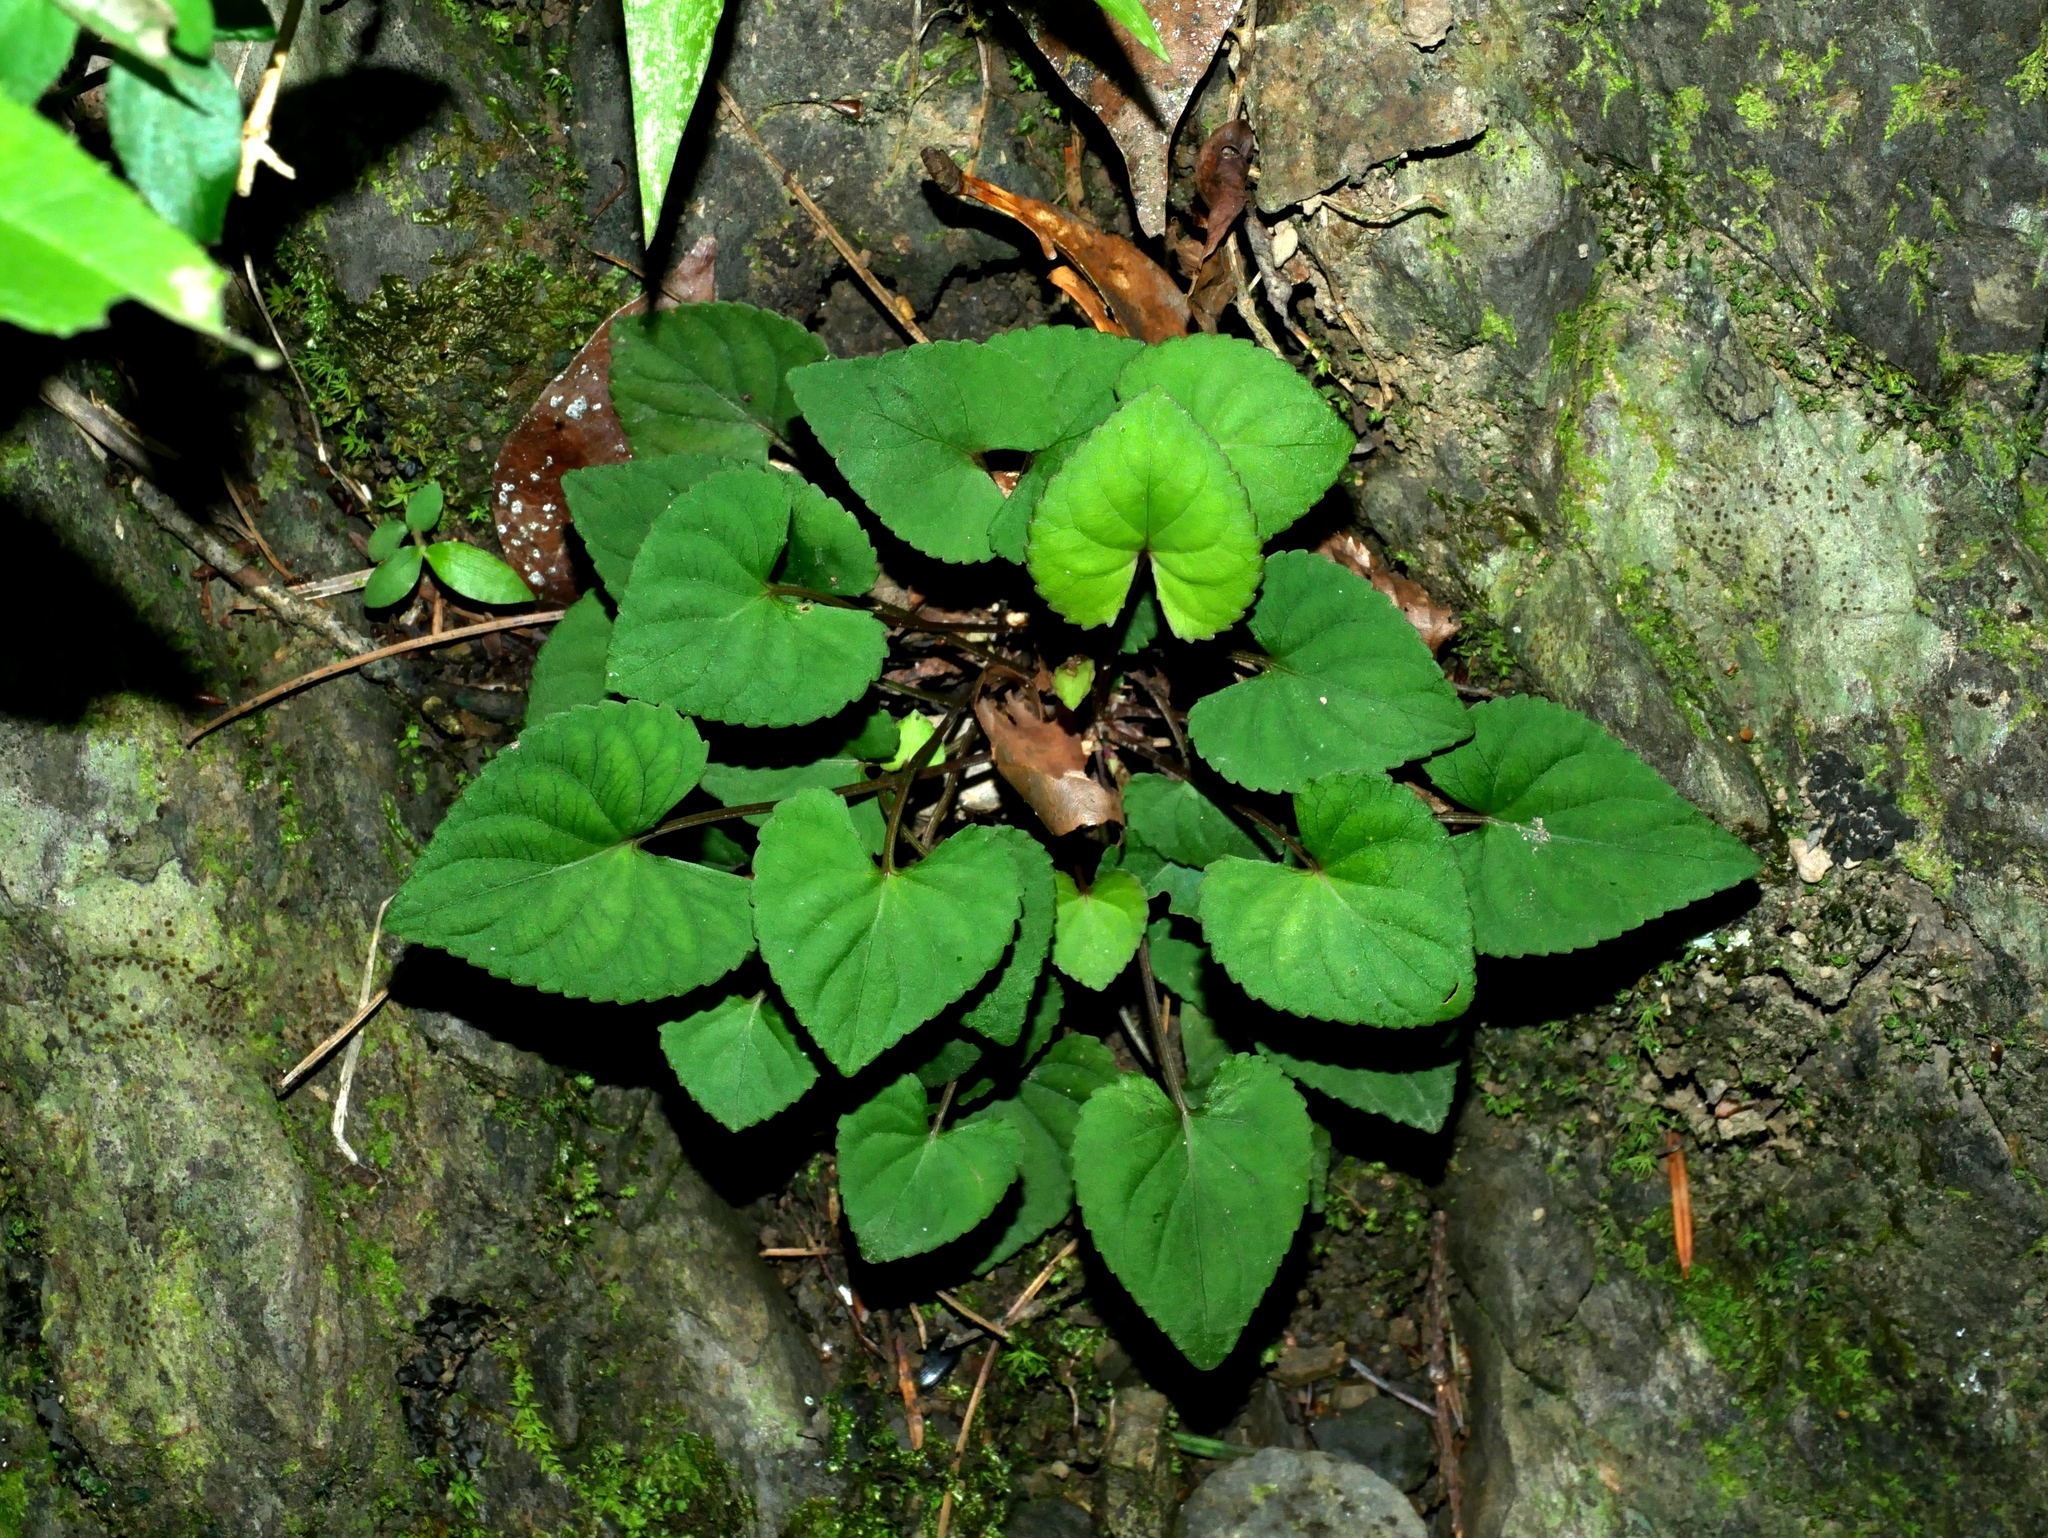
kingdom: Plantae
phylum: Tracheophyta
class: Magnoliopsida
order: Malpighiales
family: Violaceae
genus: Viola
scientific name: Viola senzanensis
